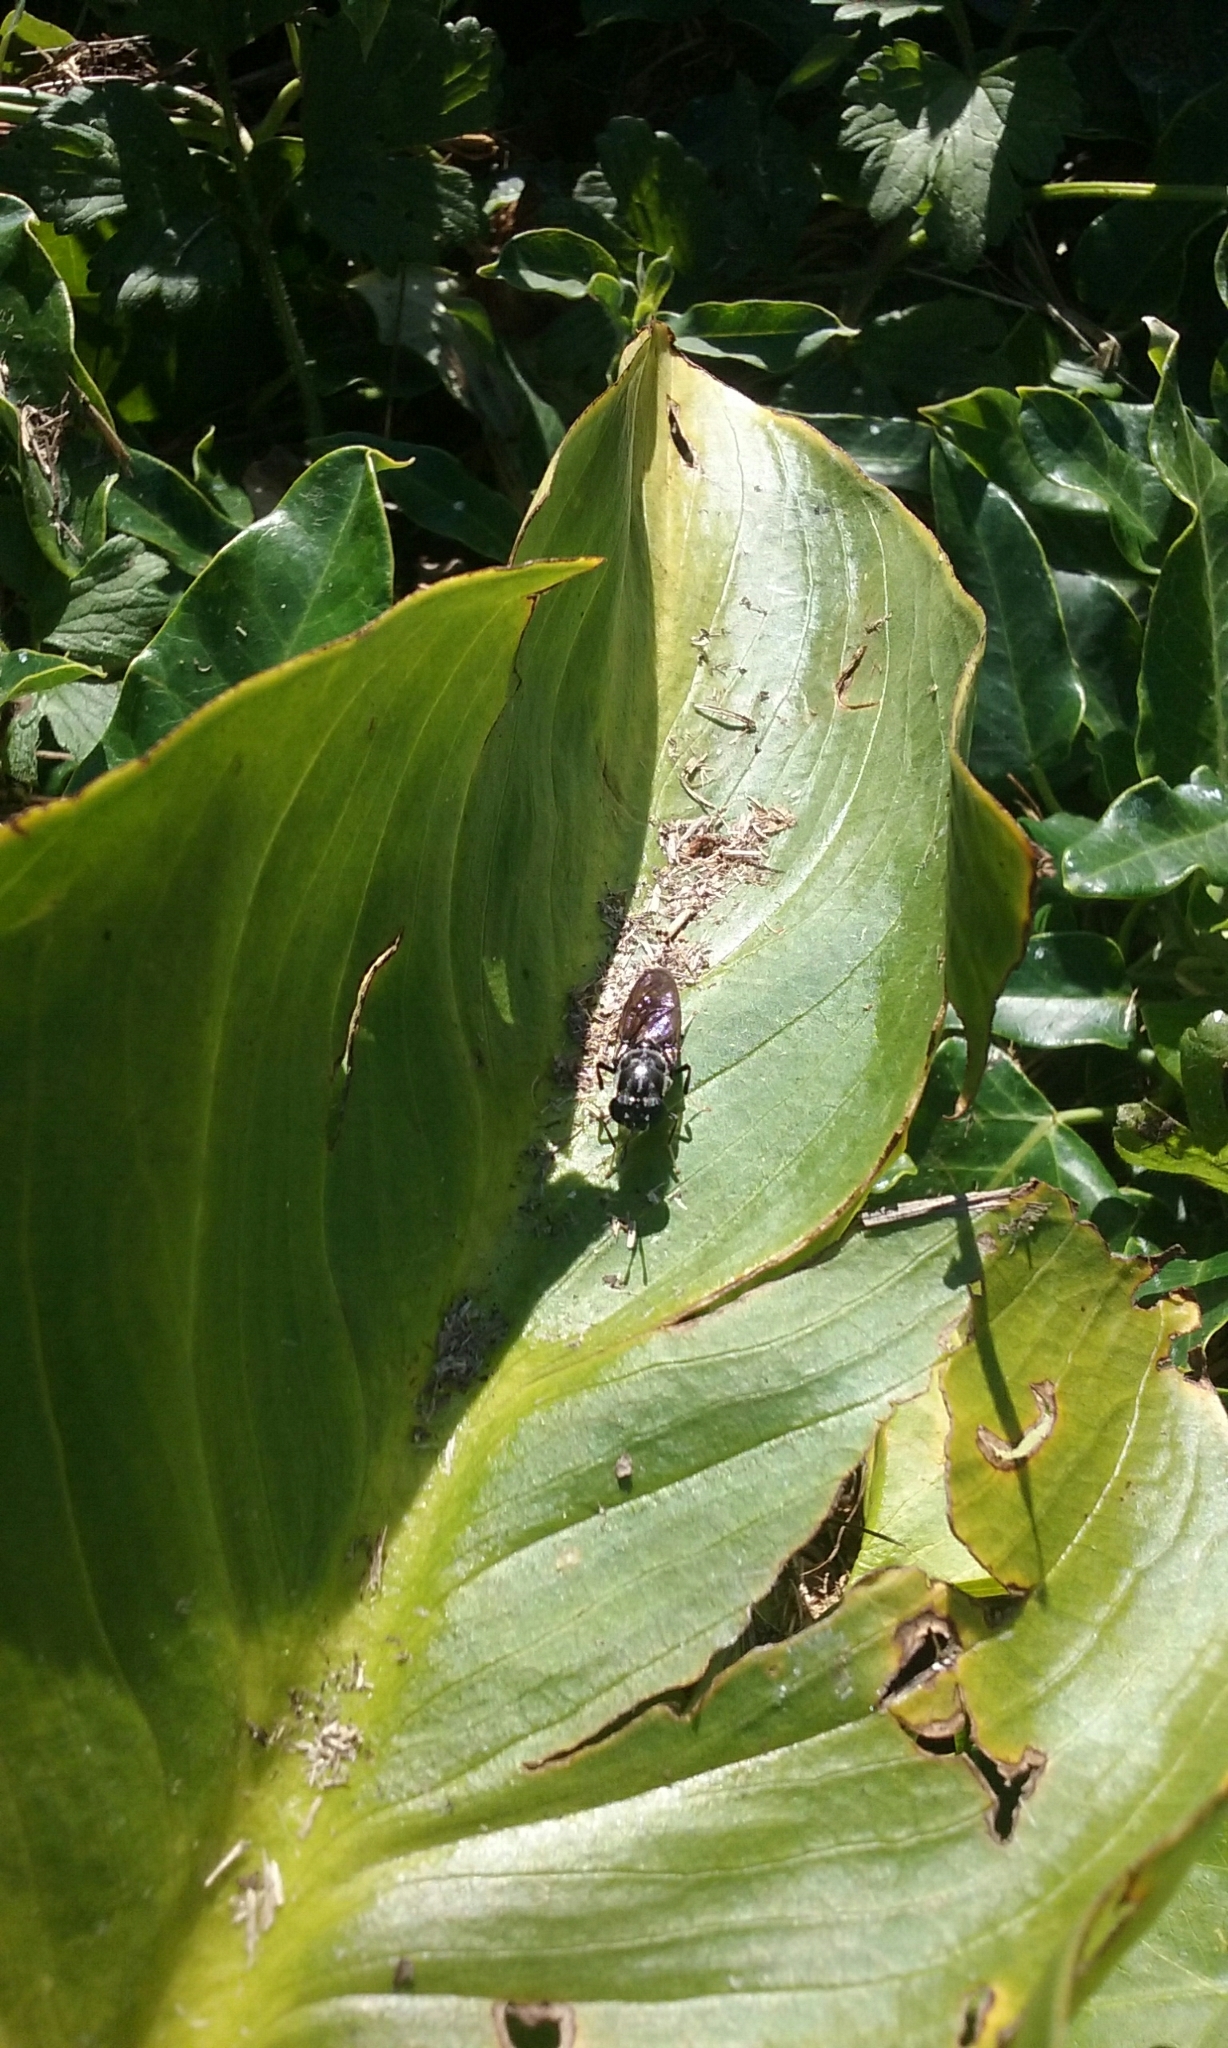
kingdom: Animalia
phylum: Arthropoda
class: Insecta
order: Diptera
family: Stratiomyidae
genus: Hermetia
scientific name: Hermetia illucens
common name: Black soldier fly
